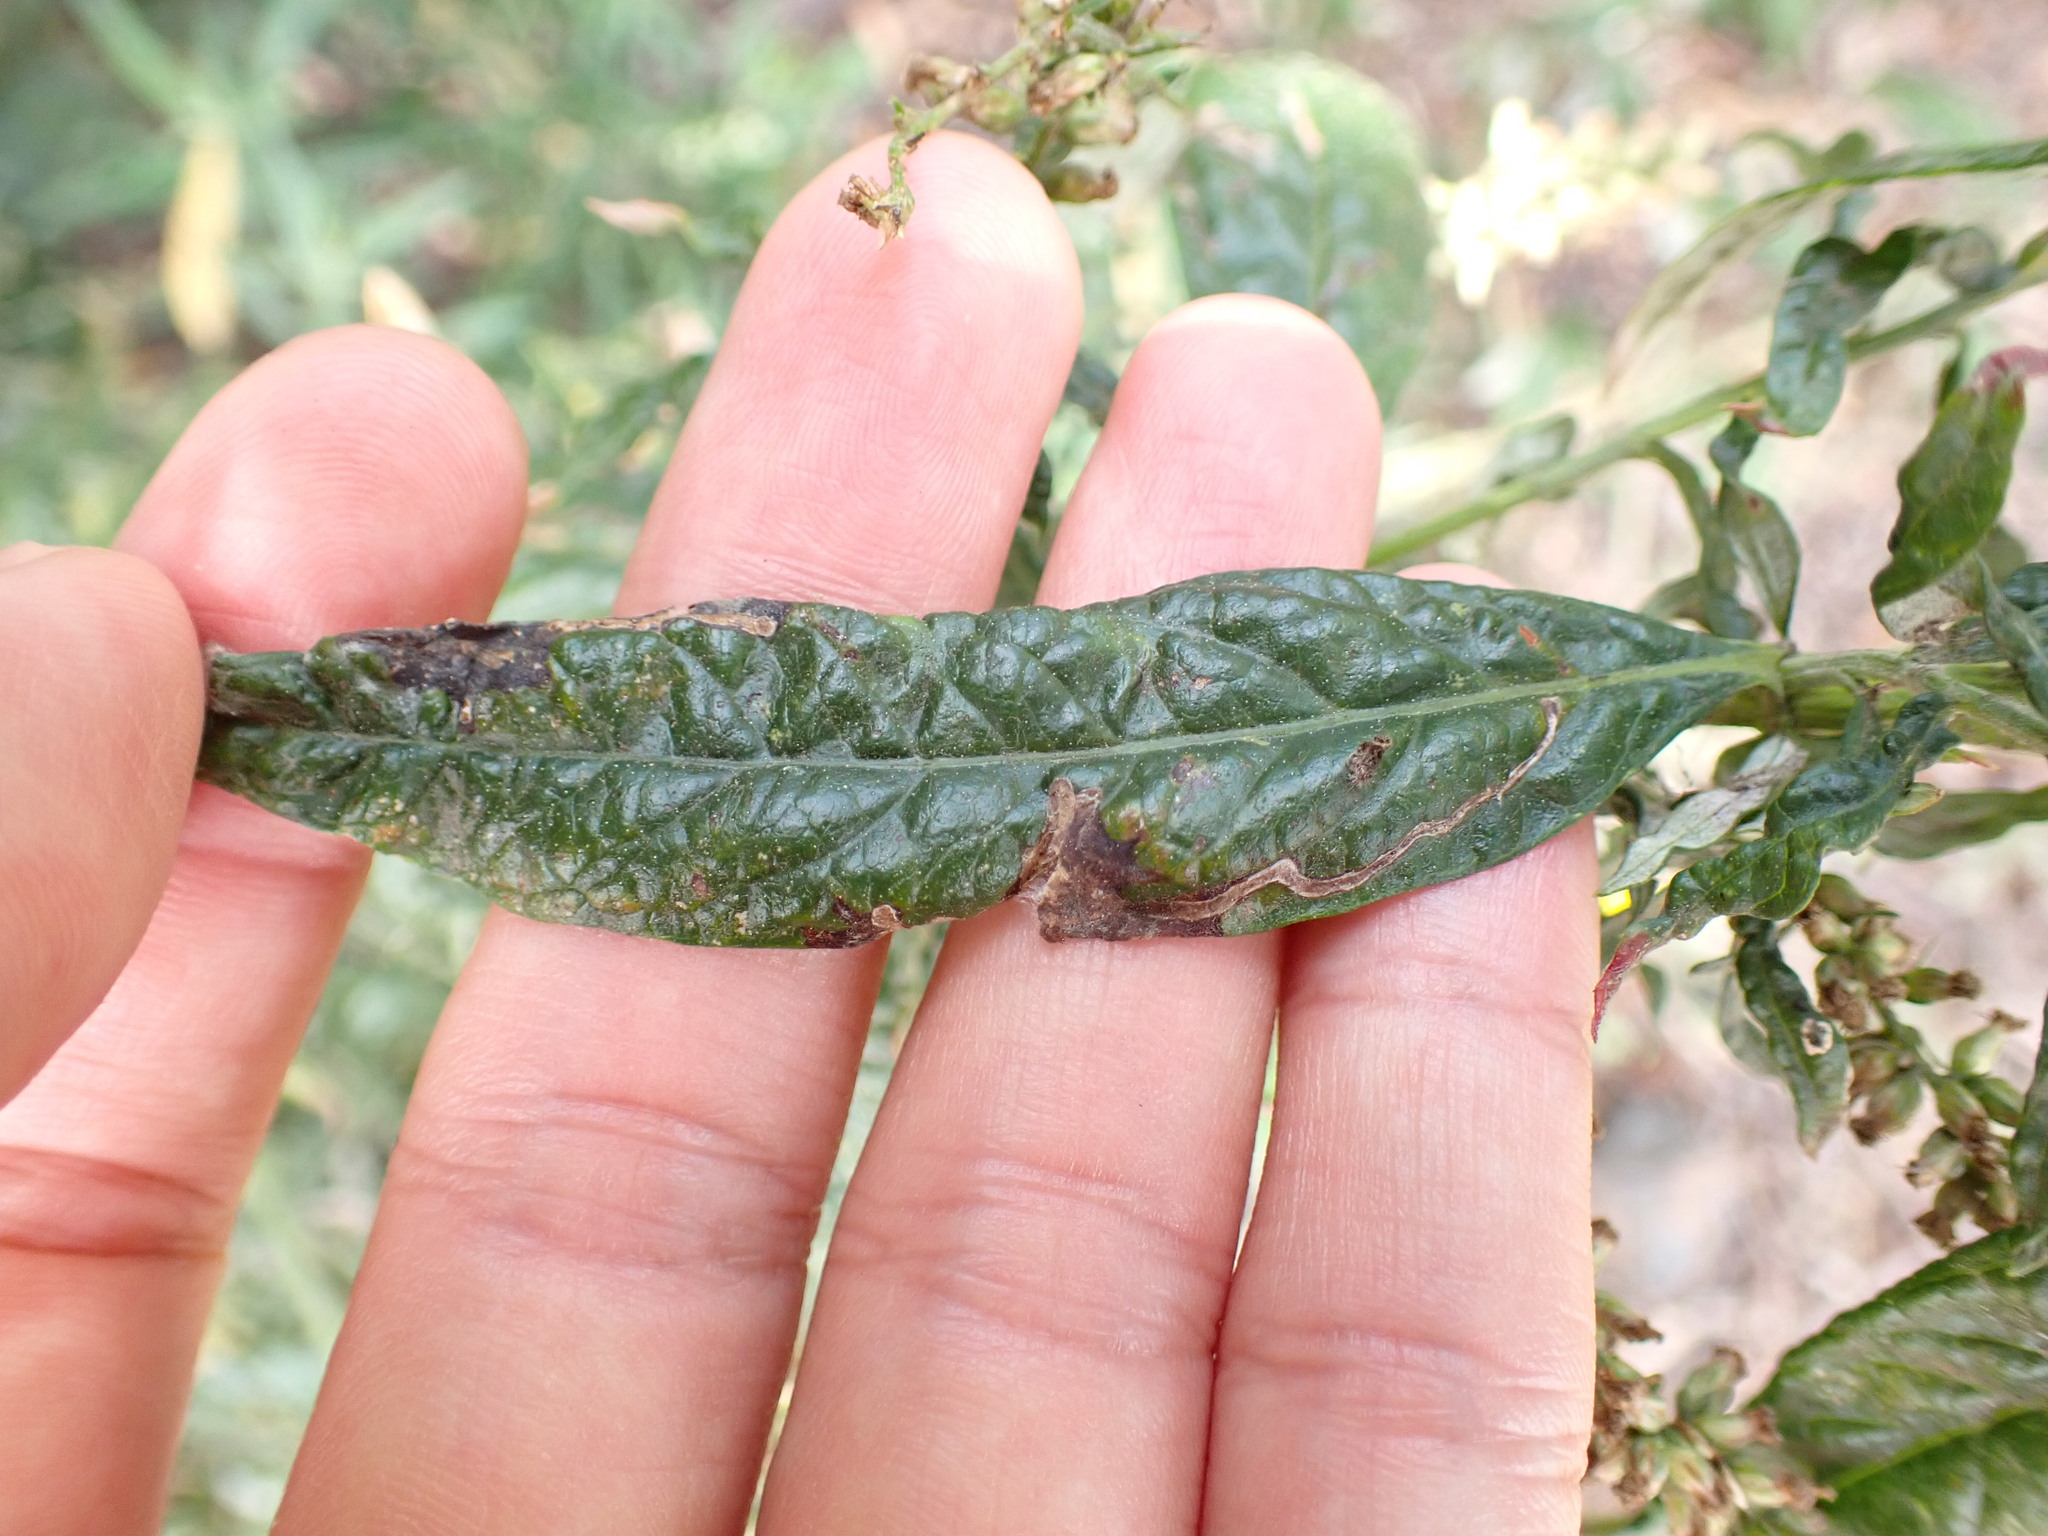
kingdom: Plantae
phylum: Tracheophyta
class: Magnoliopsida
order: Asterales
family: Asteraceae
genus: Artemisia
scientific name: Artemisia douglasiana
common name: Northwest mugwort
